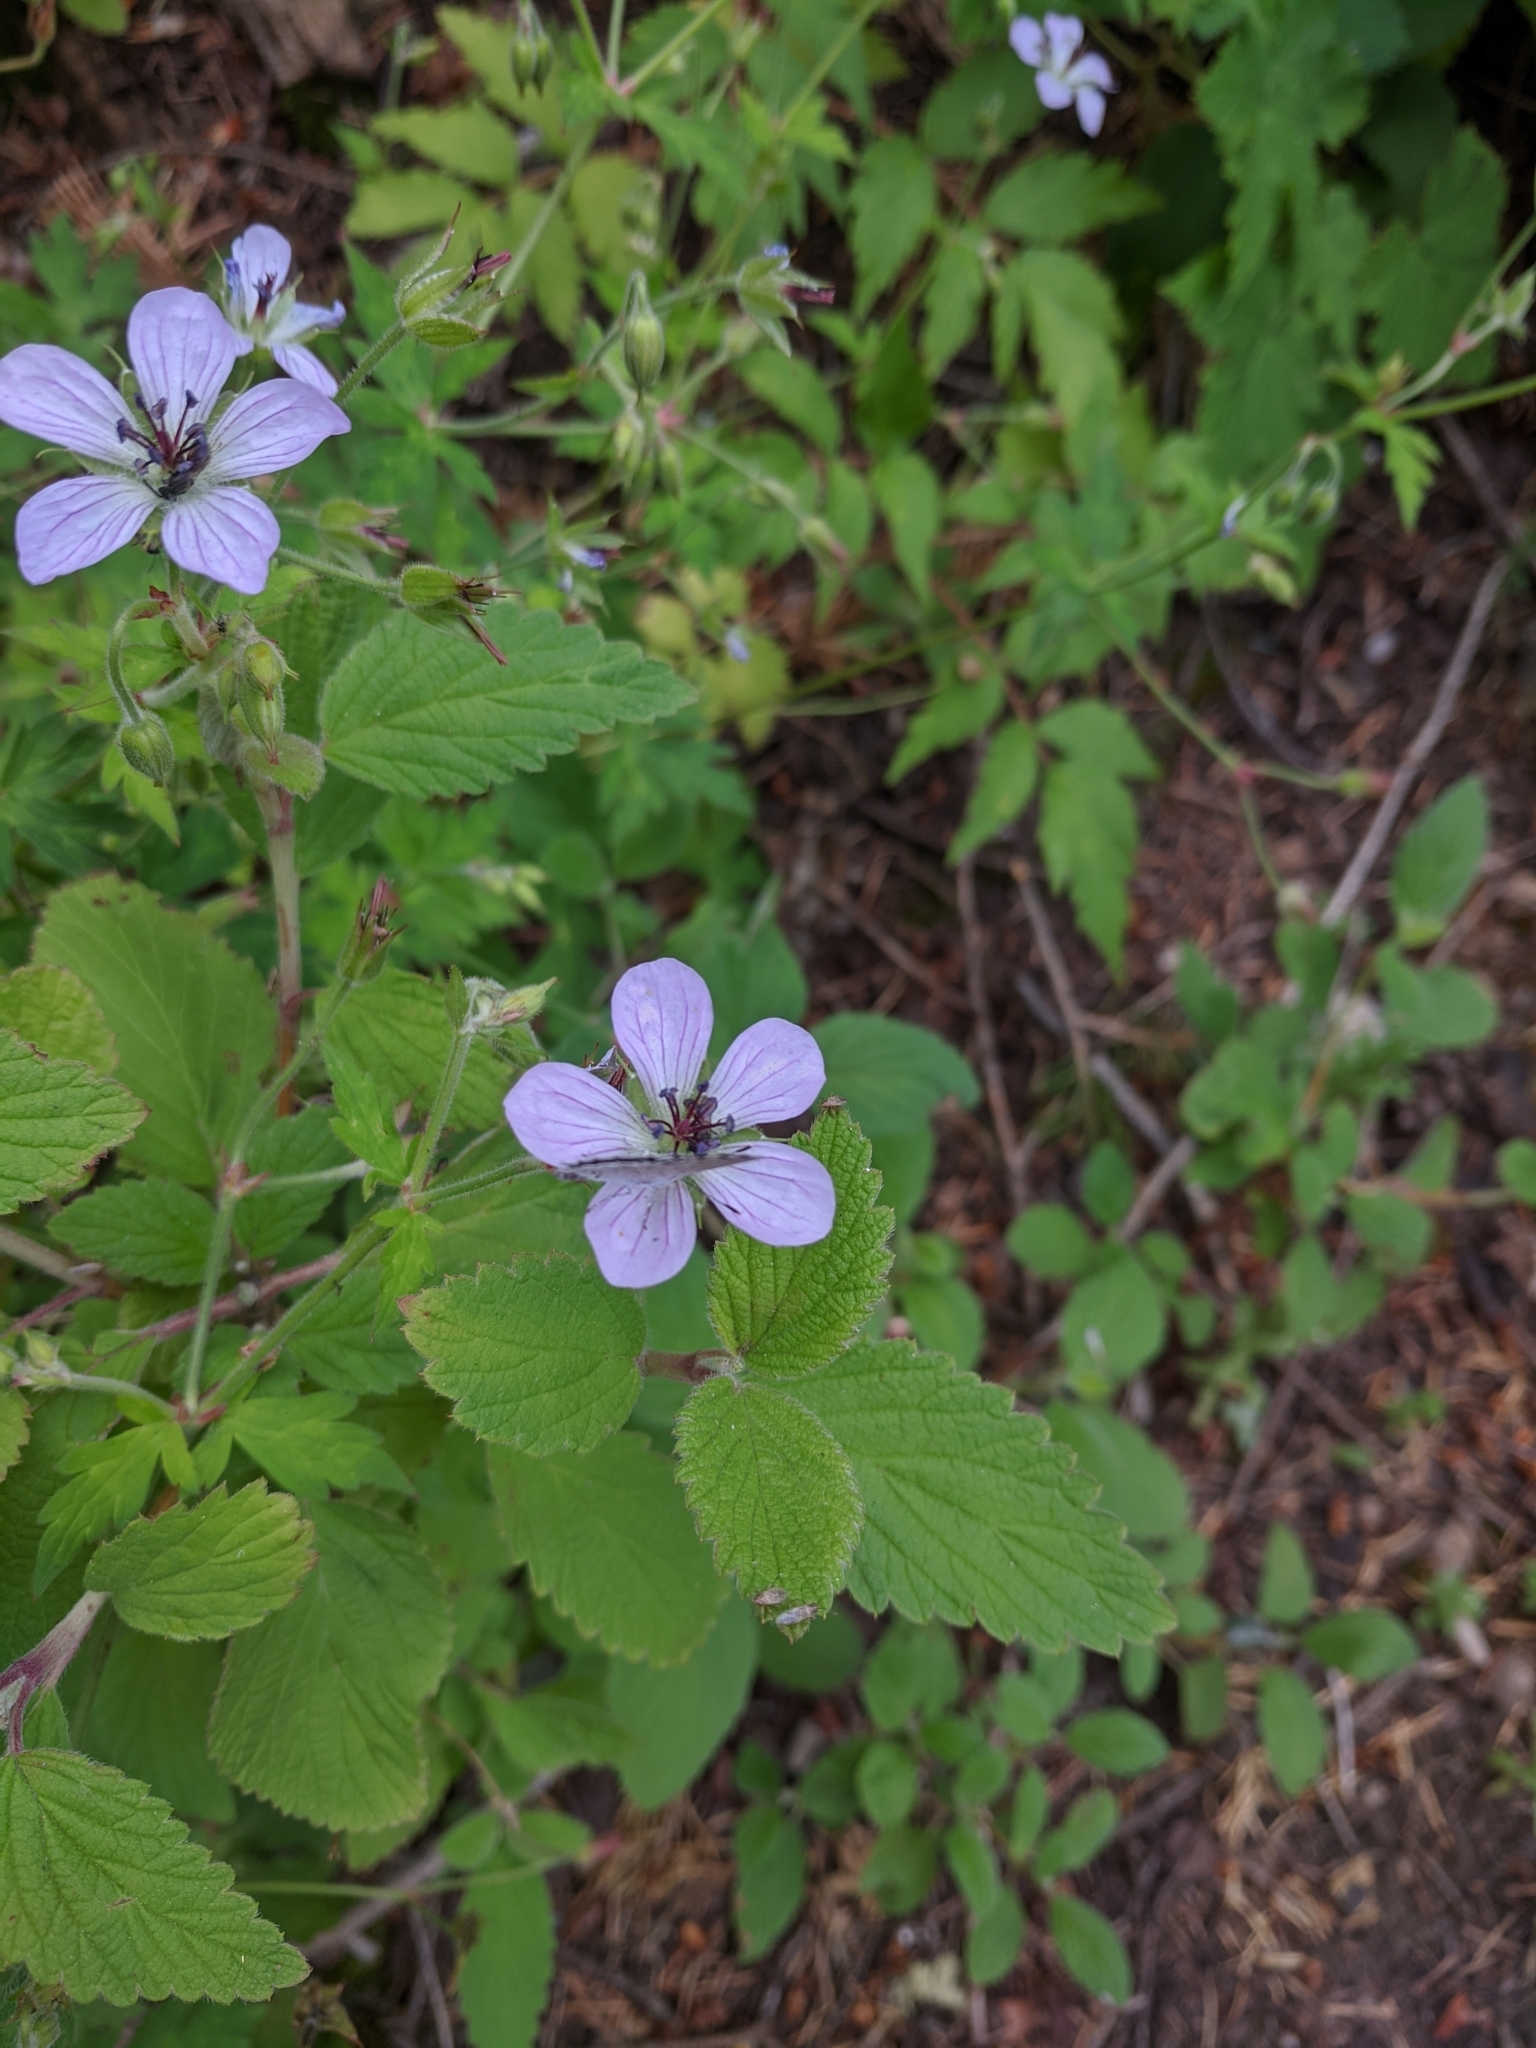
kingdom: Plantae
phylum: Tracheophyta
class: Magnoliopsida
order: Geraniales
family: Geraniaceae
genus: Geranium
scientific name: Geranium richardsonii
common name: Richardson's crane's-bill
